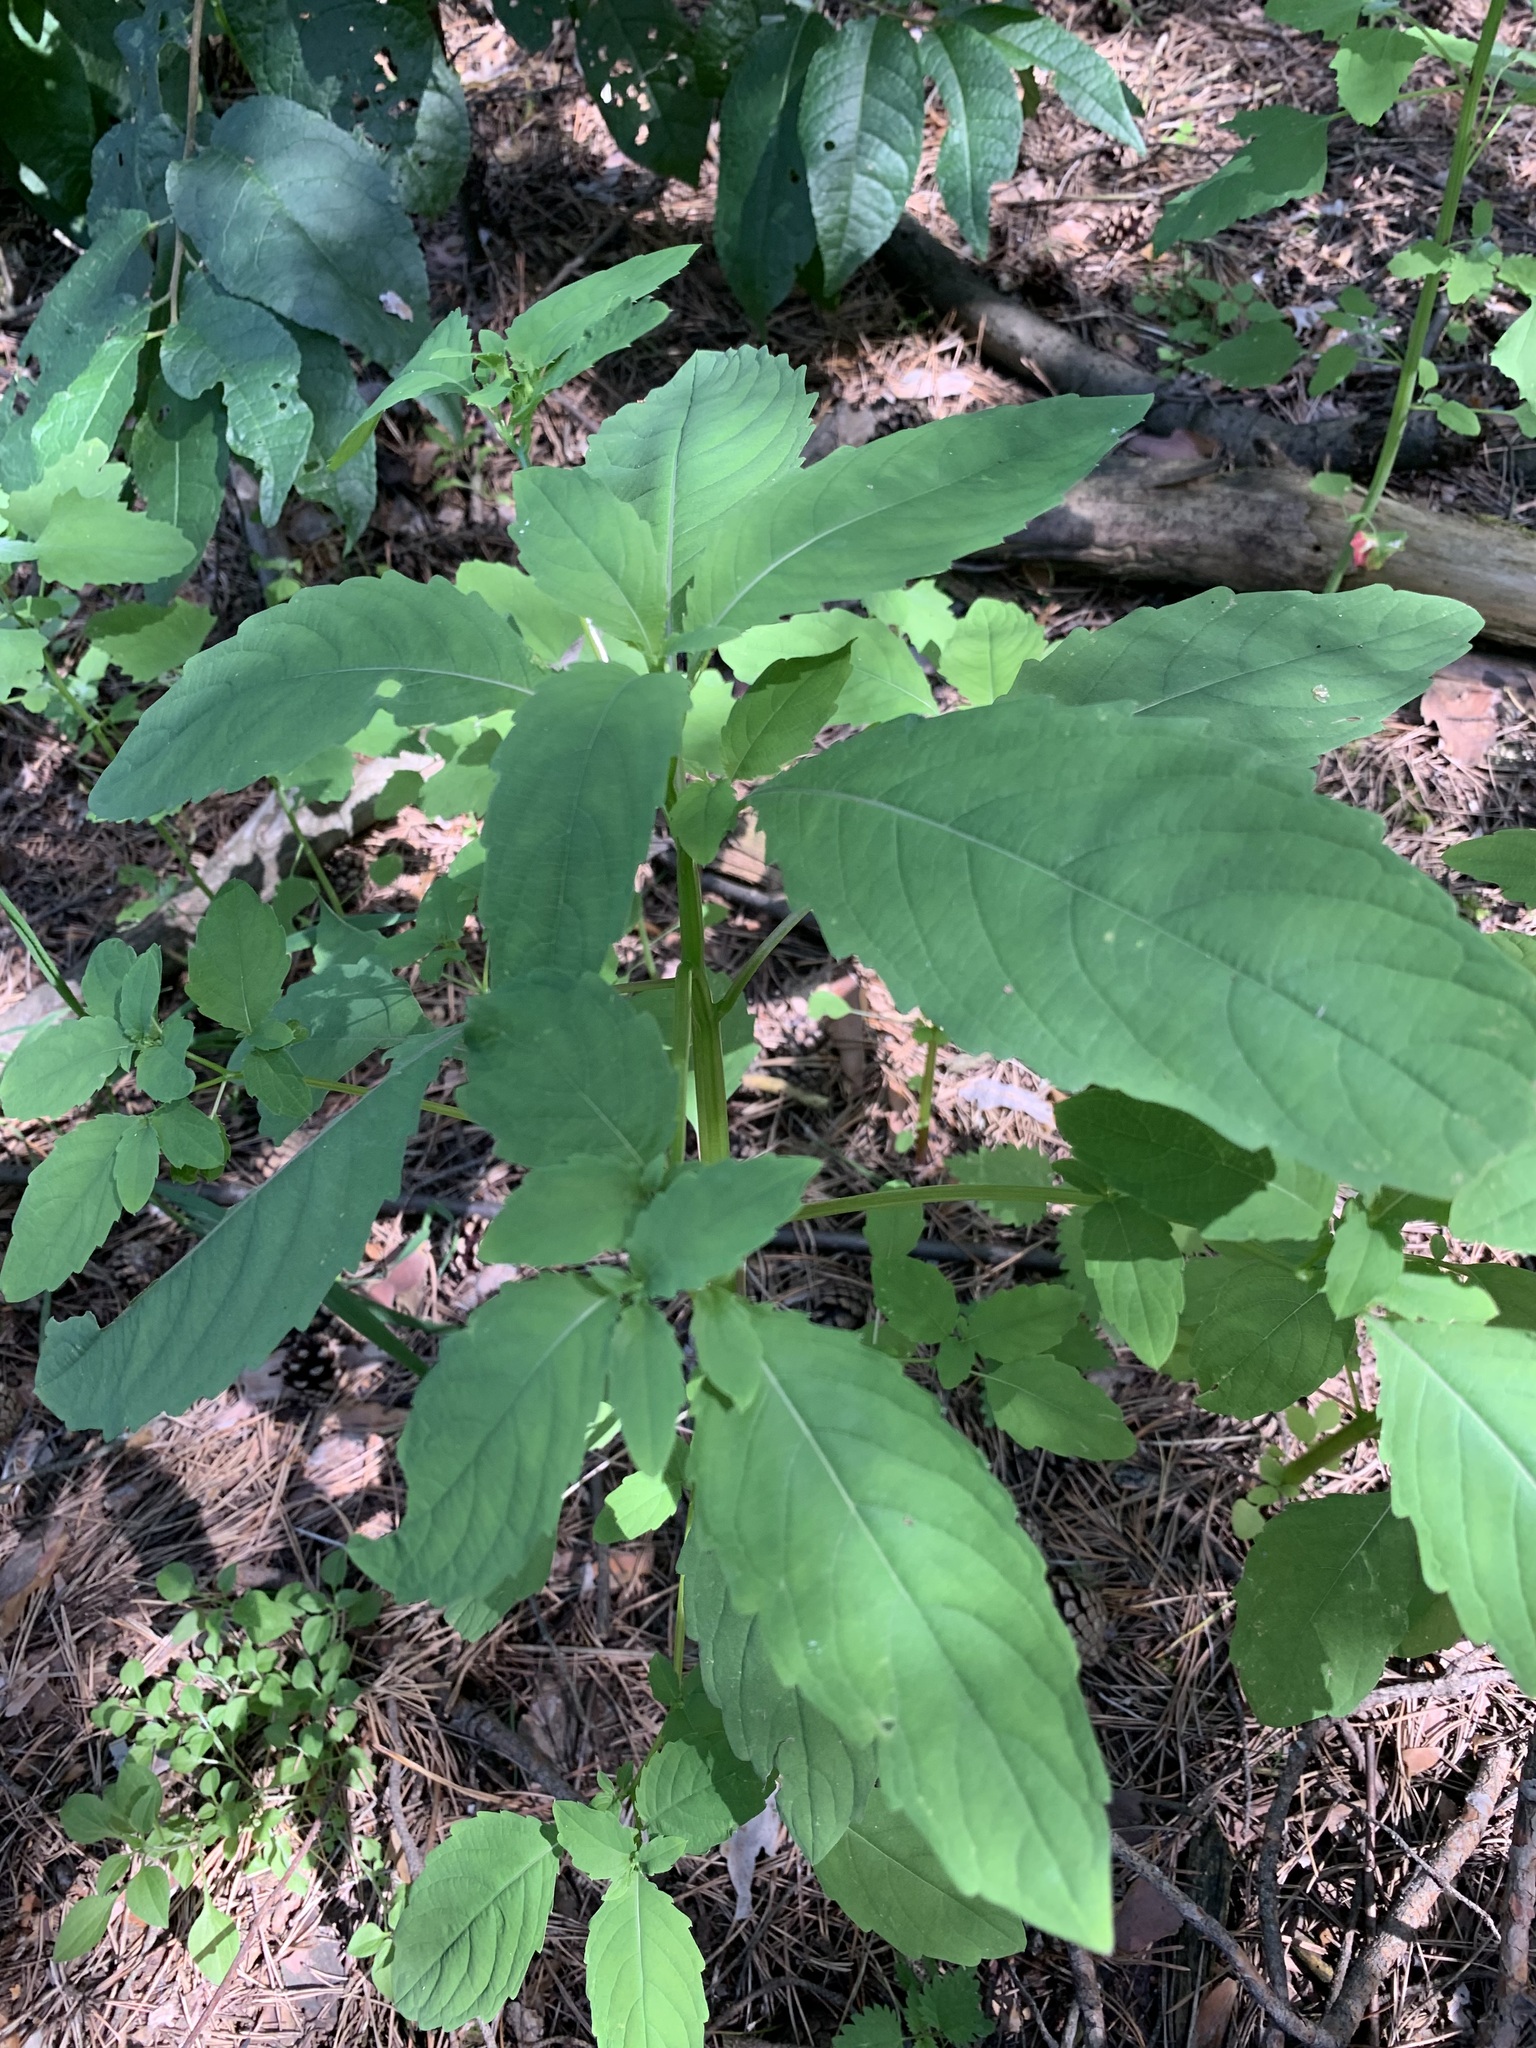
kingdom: Plantae
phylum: Tracheophyta
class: Magnoliopsida
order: Ericales
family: Balsaminaceae
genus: Impatiens
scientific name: Impatiens noli-tangere
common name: Touch-me-not balsam
